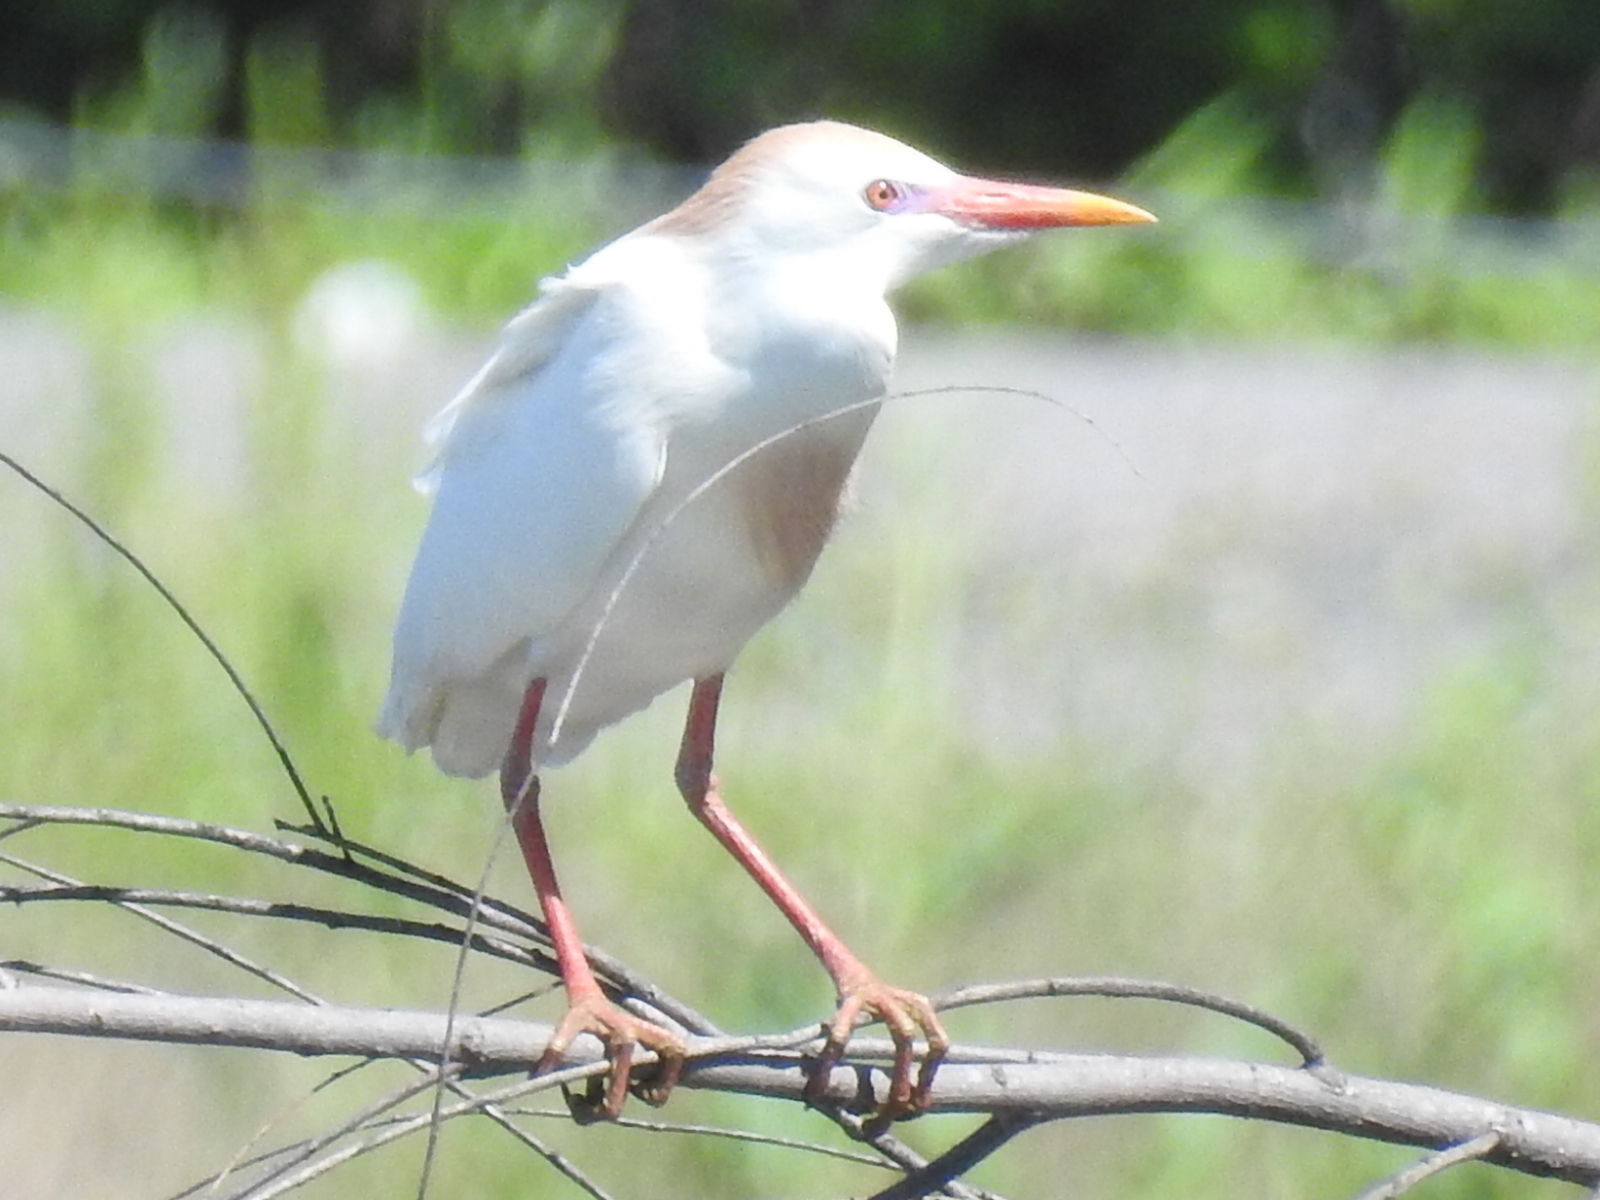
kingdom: Animalia
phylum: Chordata
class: Aves
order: Pelecaniformes
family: Ardeidae
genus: Bubulcus
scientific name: Bubulcus ibis
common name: Cattle egret
